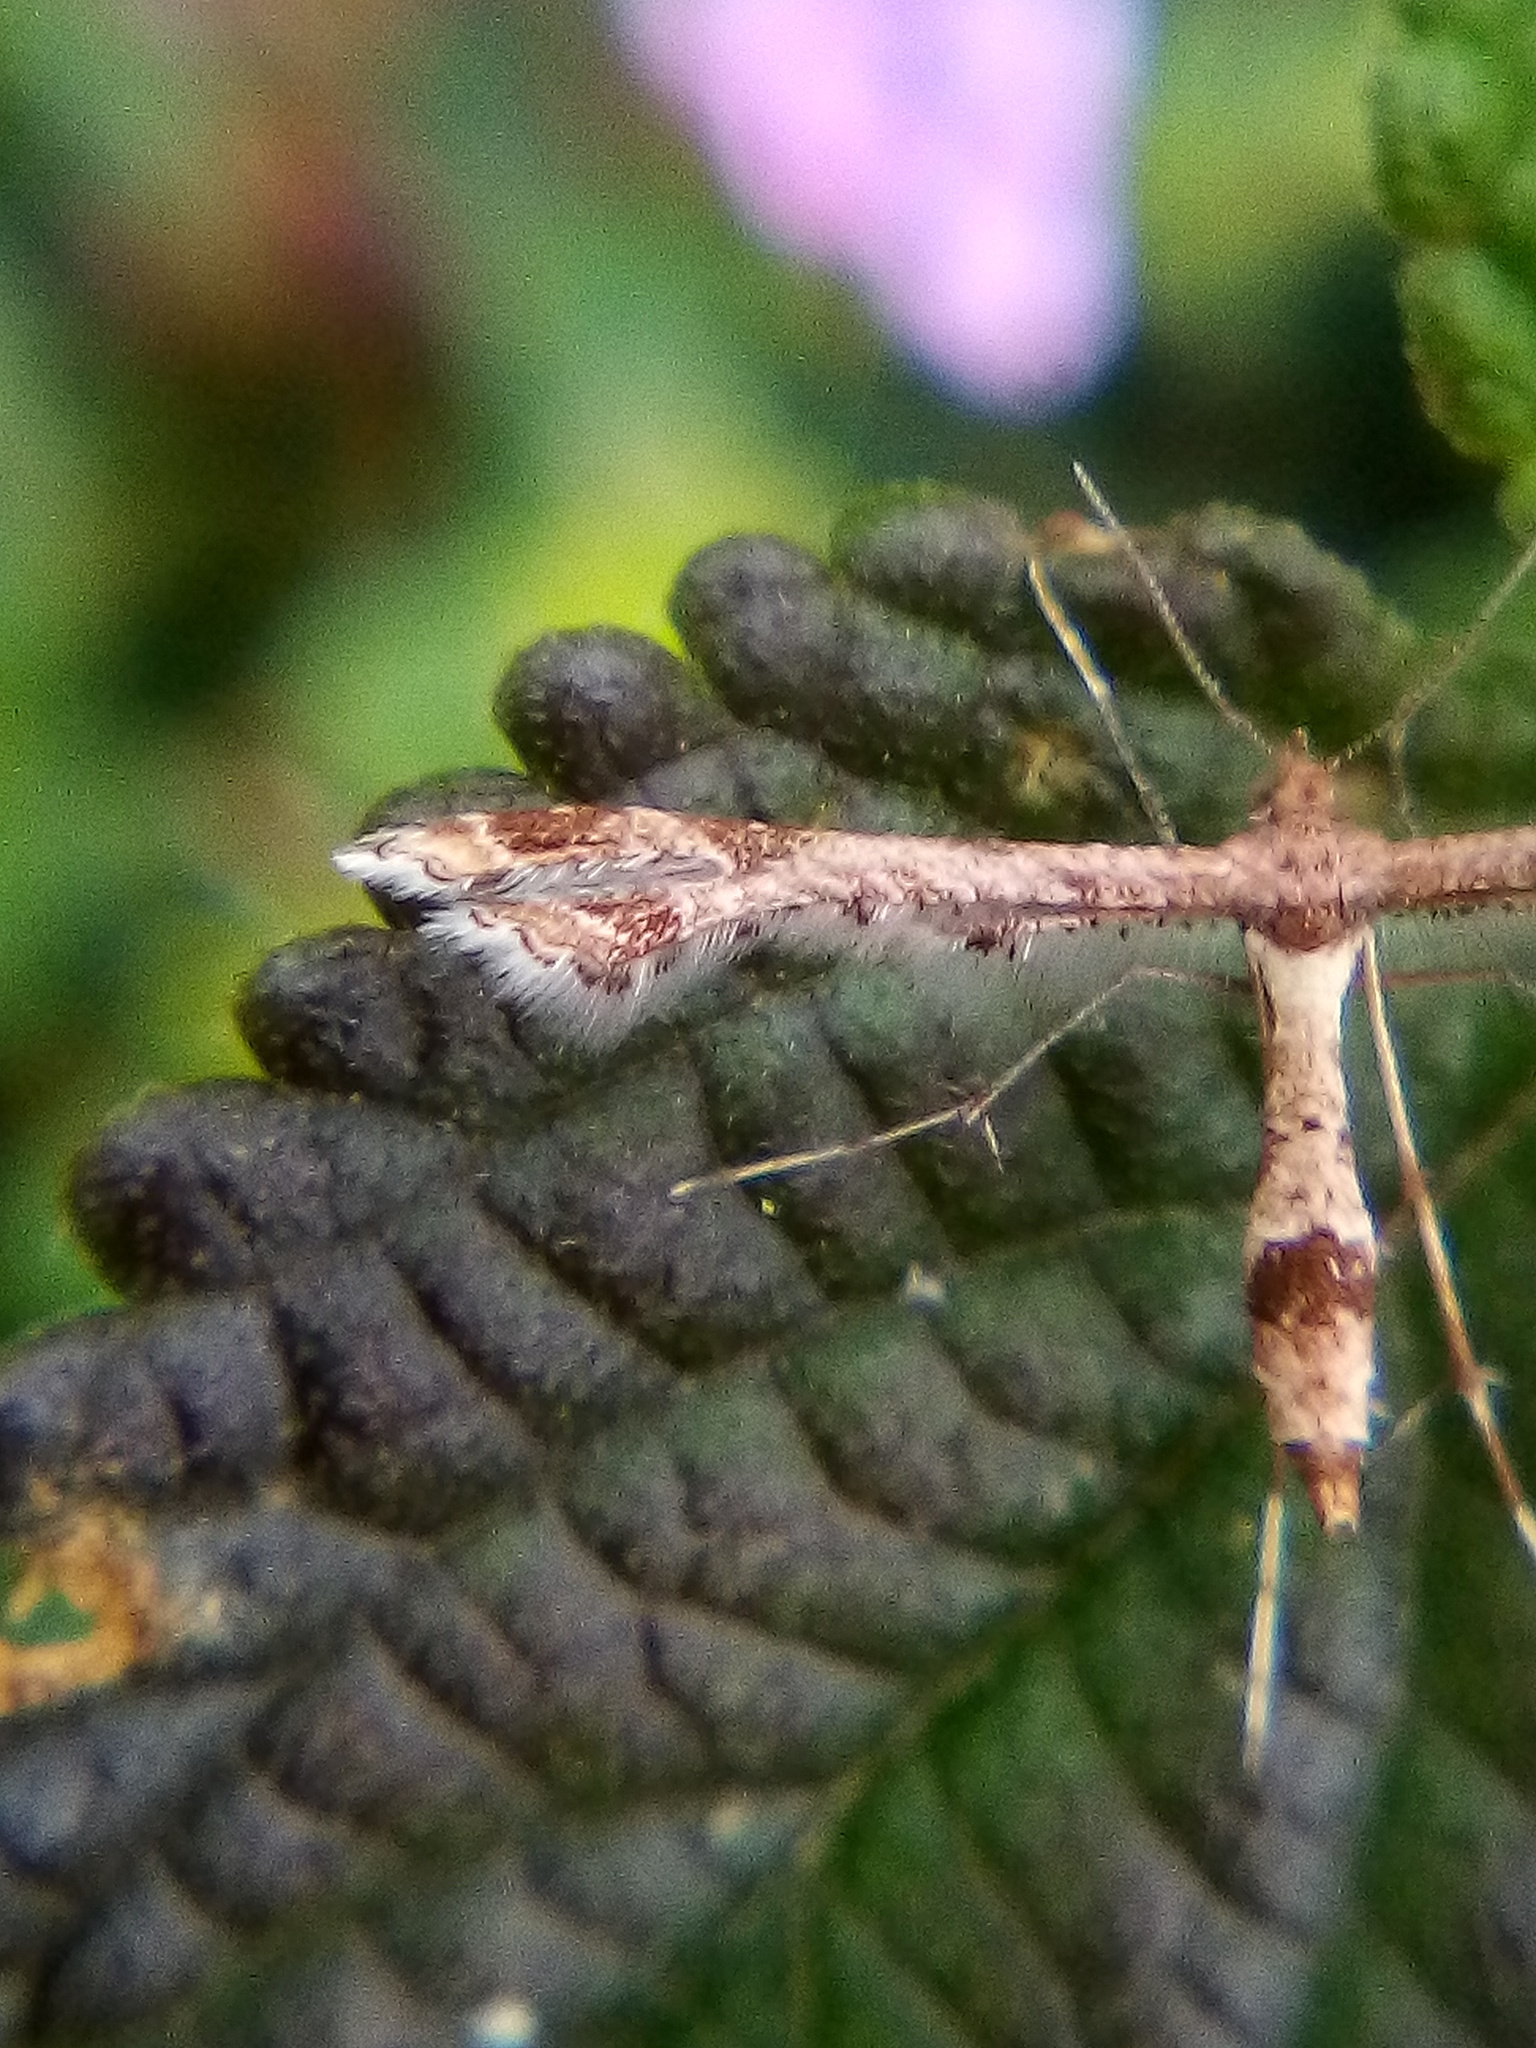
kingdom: Animalia
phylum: Arthropoda
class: Insecta
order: Lepidoptera
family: Pterophoridae
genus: Lantanophaga
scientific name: Lantanophaga pusillidactylus
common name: Moth
